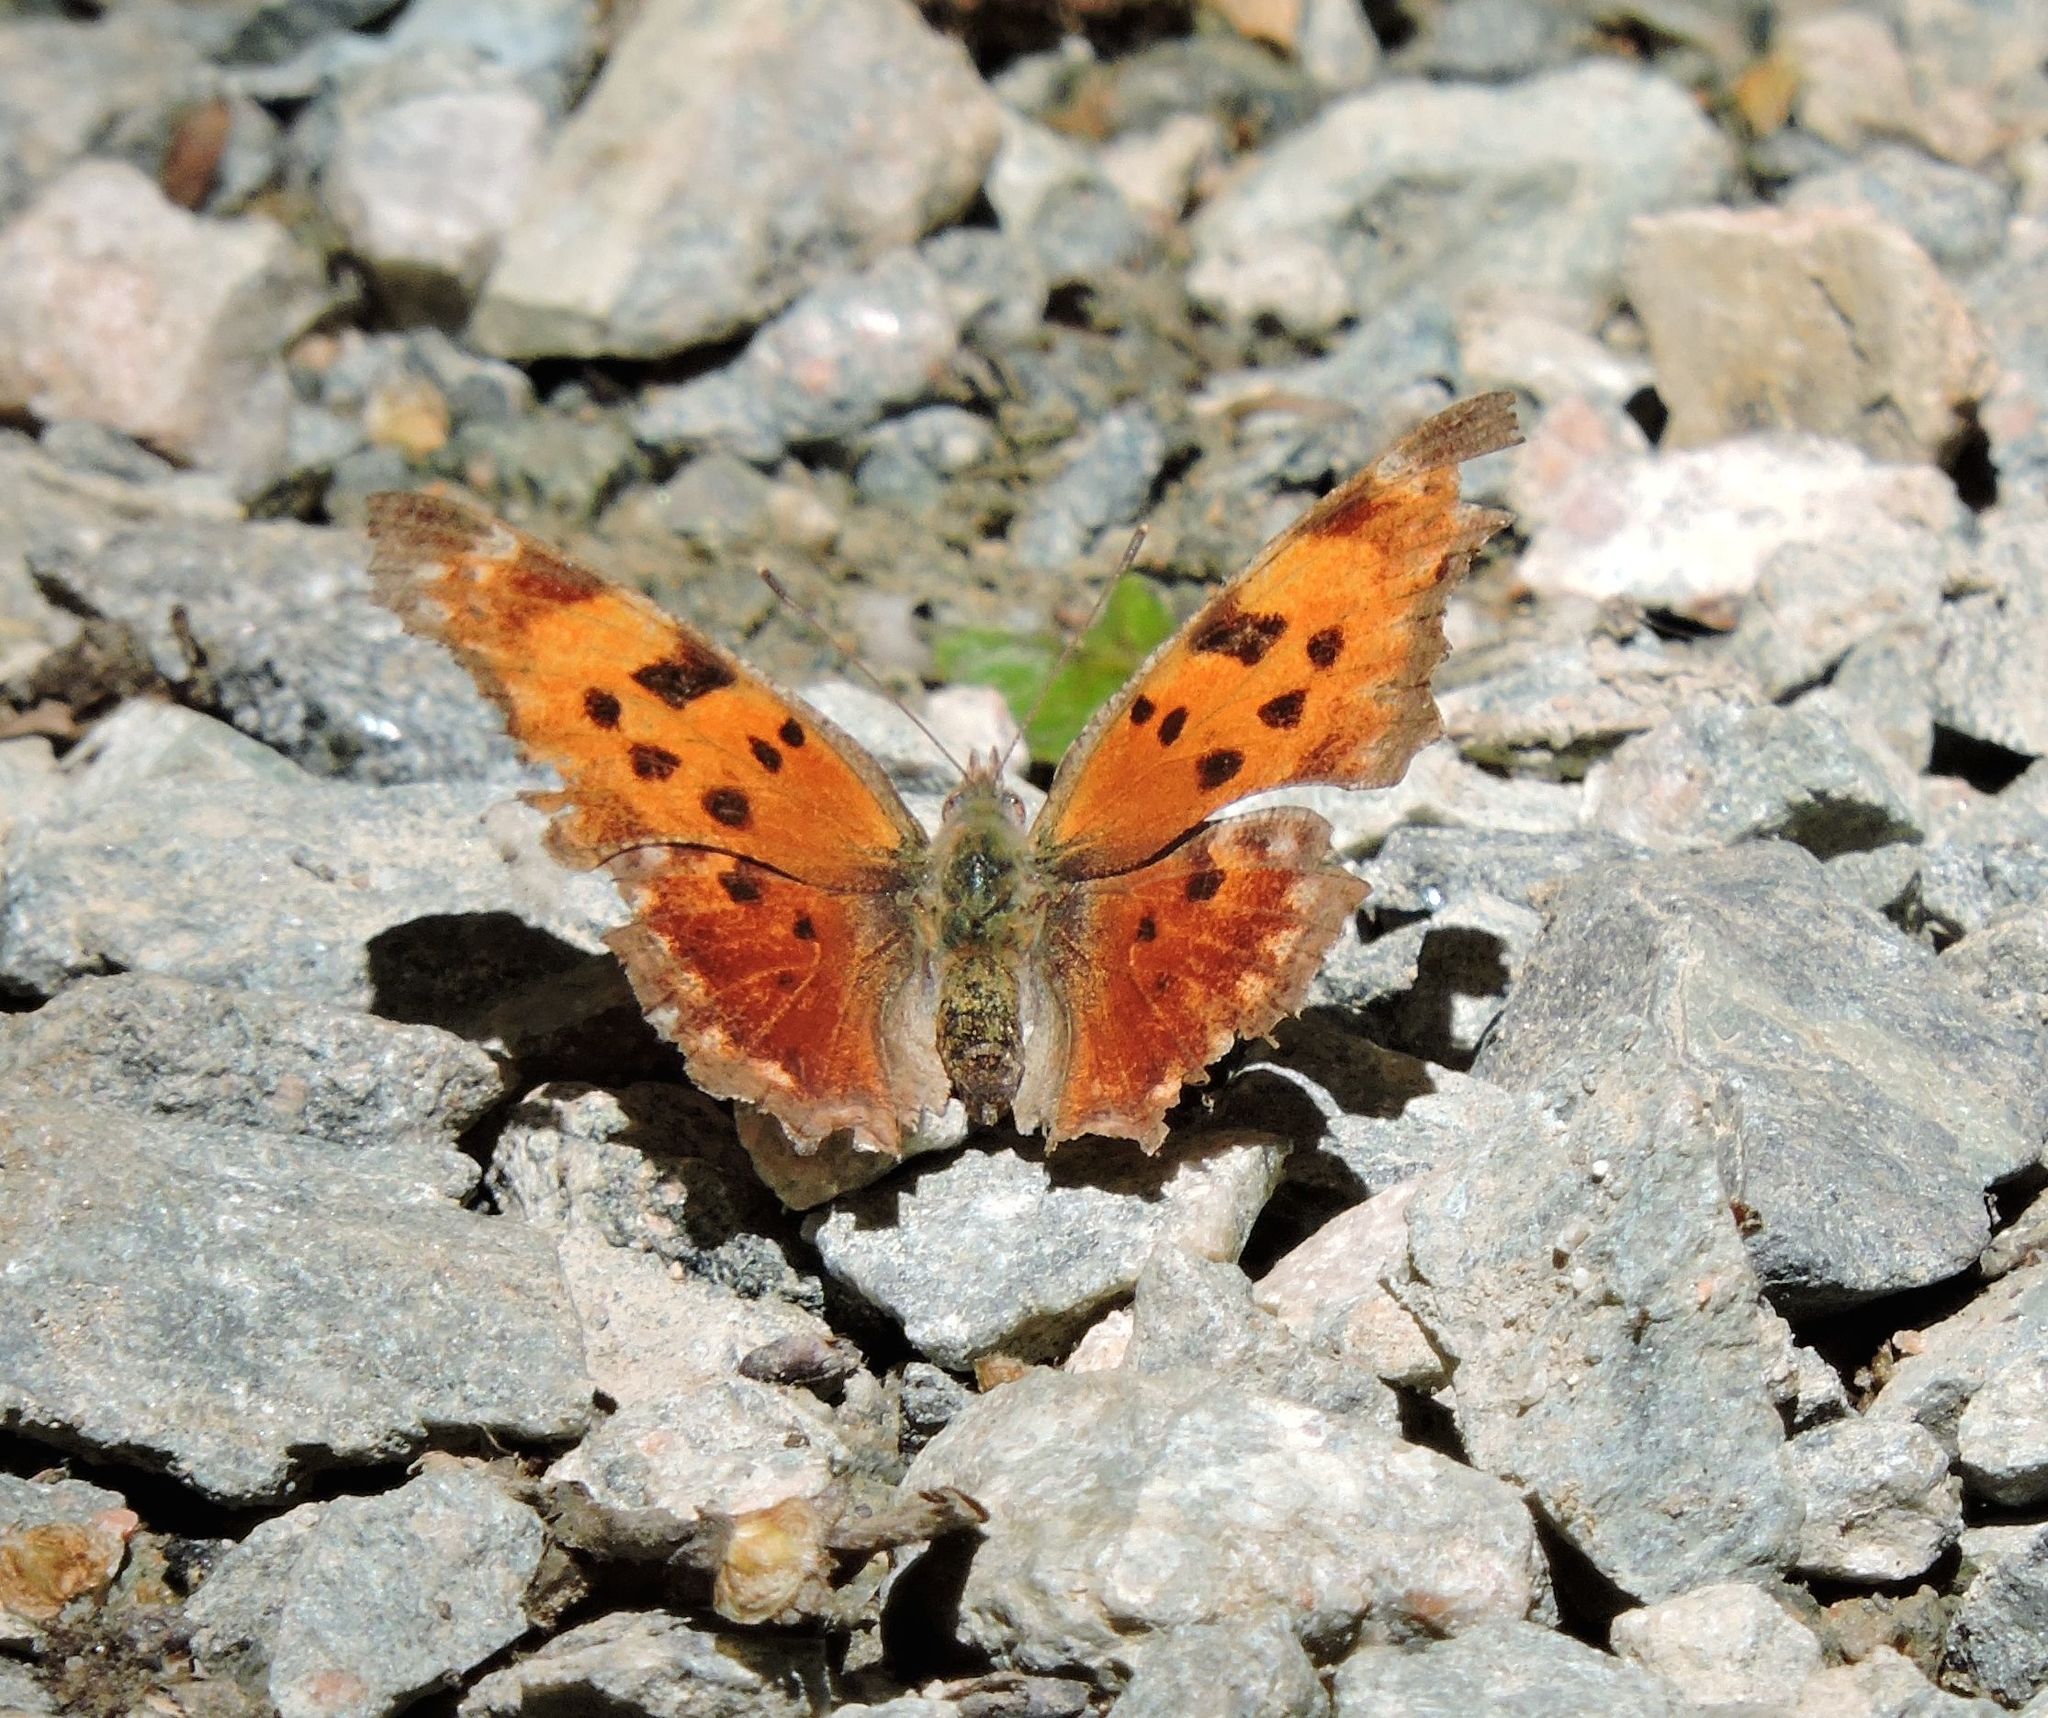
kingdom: Animalia
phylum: Arthropoda
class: Insecta
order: Lepidoptera
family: Nymphalidae
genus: Polygonia
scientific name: Polygonia comma
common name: Eastern comma
